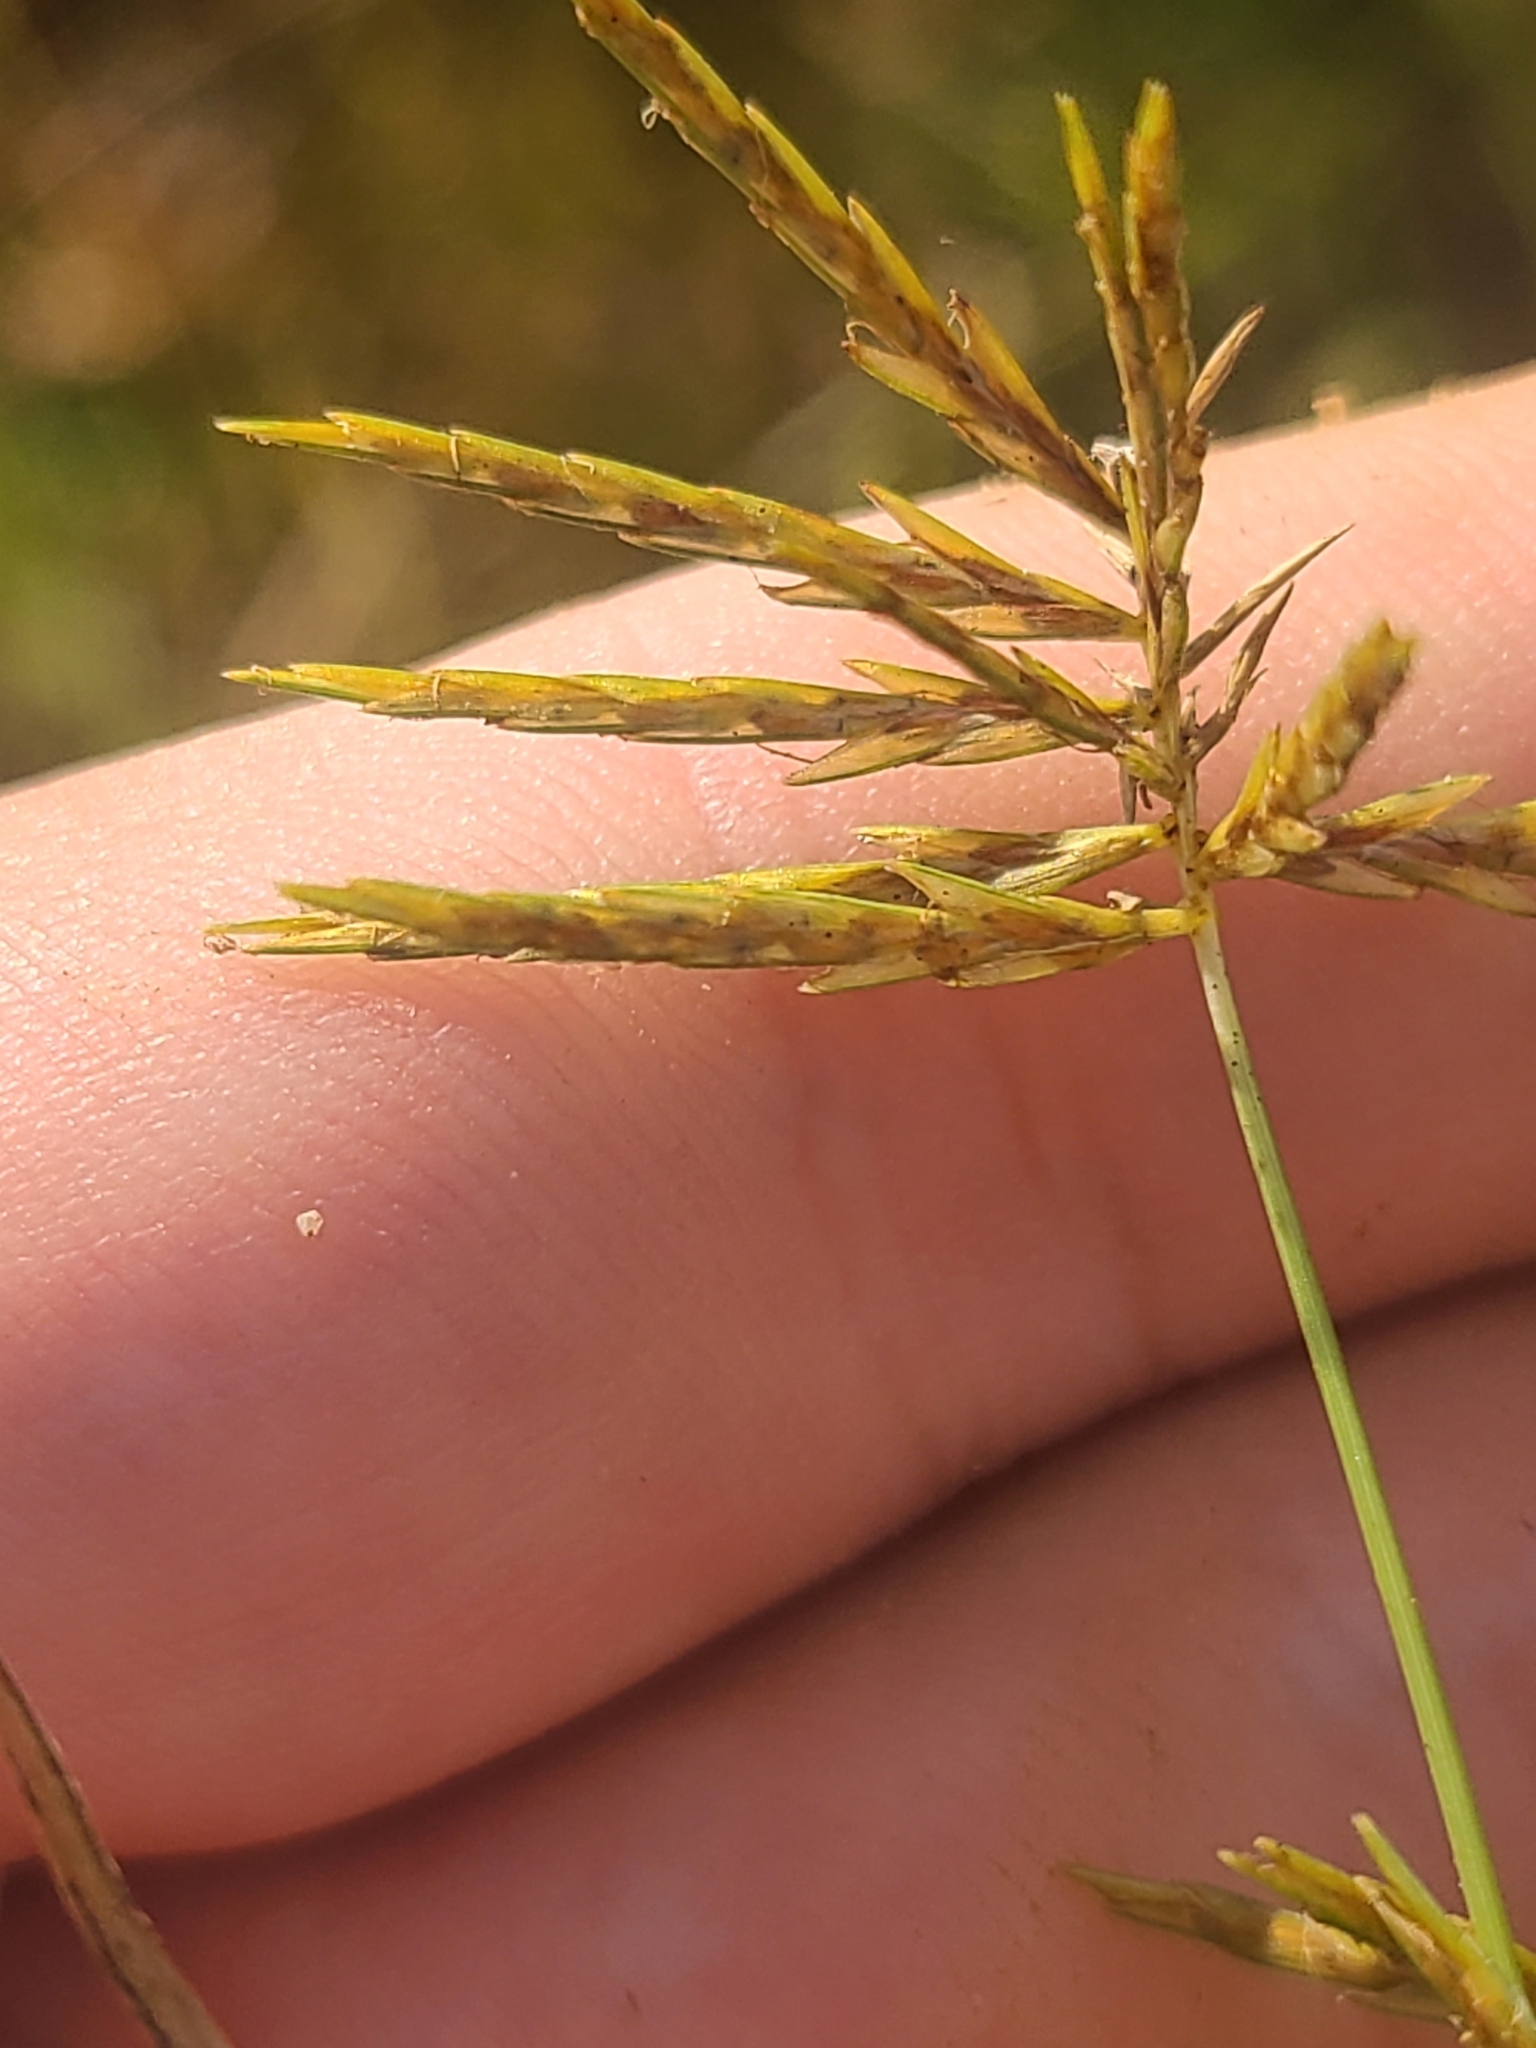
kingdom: Plantae
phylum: Tracheophyta
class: Liliopsida
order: Poales
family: Cyperaceae
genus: Cyperus
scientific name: Cyperus strigosus
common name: False nutsedge
